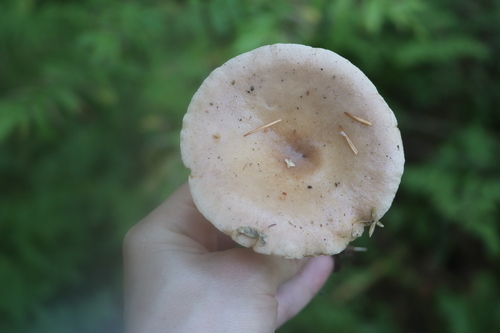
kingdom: Fungi
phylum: Basidiomycota
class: Agaricomycetes
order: Russulales
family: Russulaceae
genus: Lactarius
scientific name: Lactarius utilis
